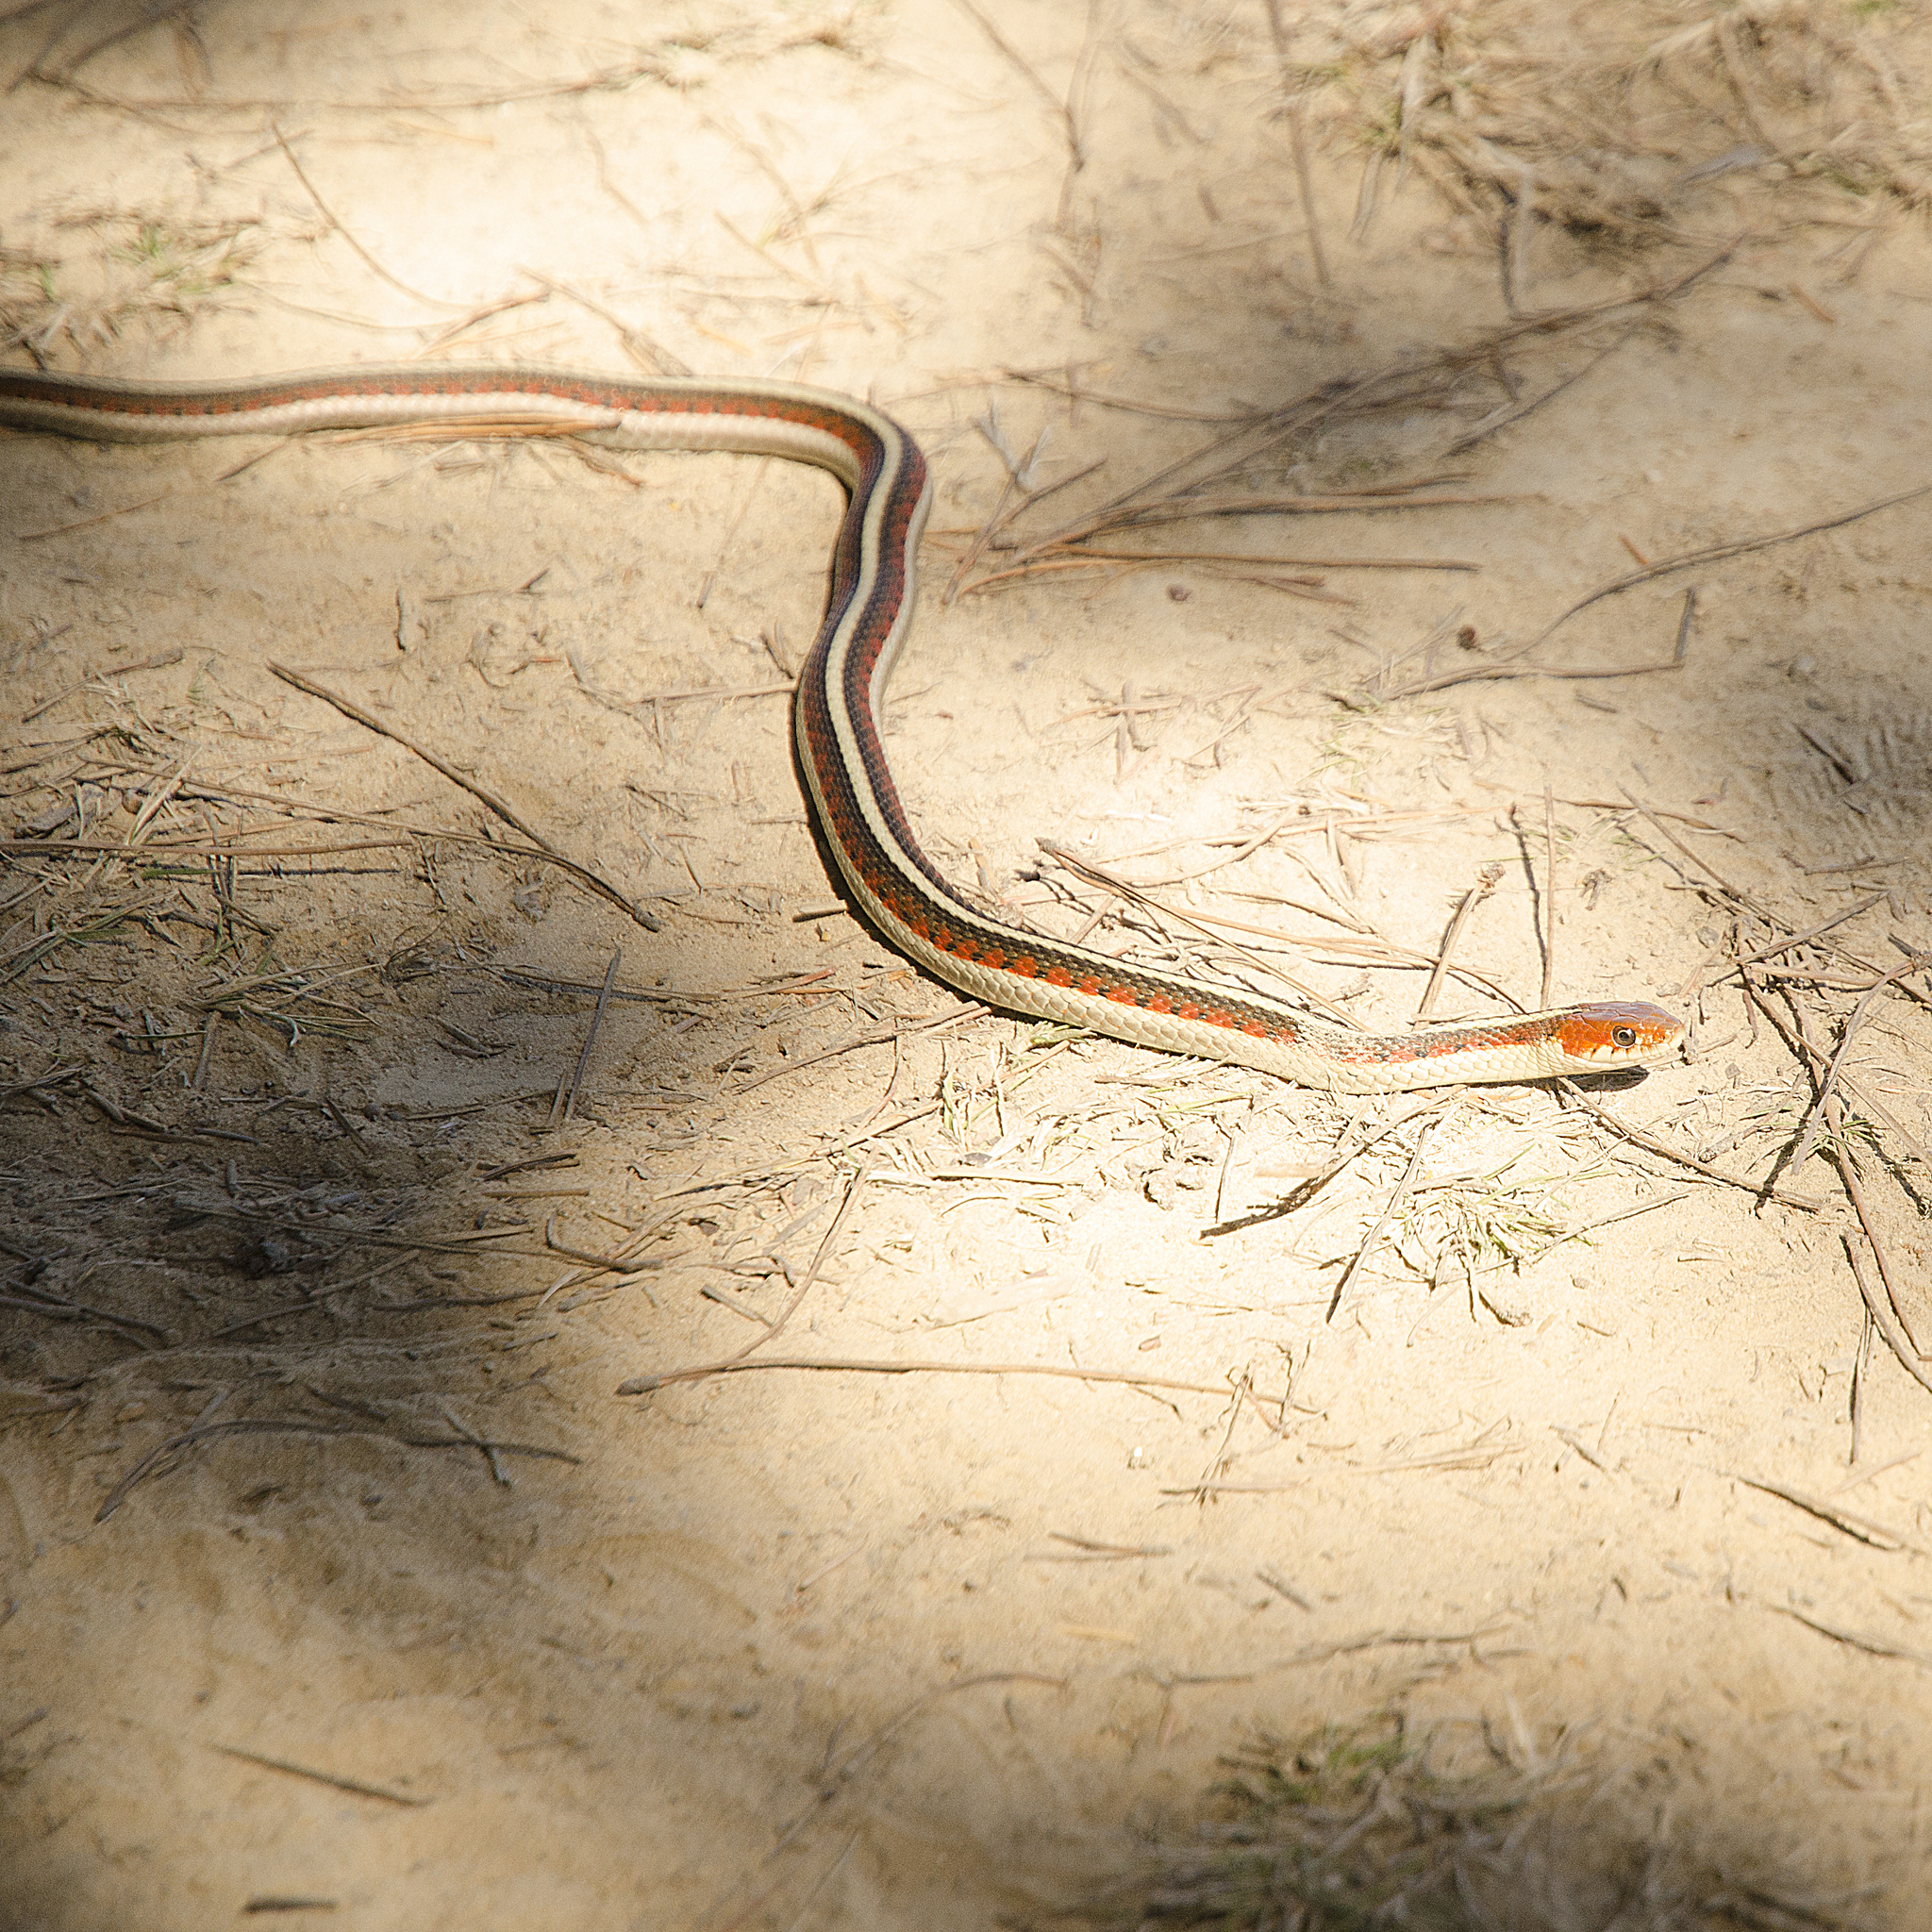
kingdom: Animalia
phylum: Chordata
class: Squamata
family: Colubridae
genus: Thamnophis
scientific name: Thamnophis sirtalis
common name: Common garter snake
